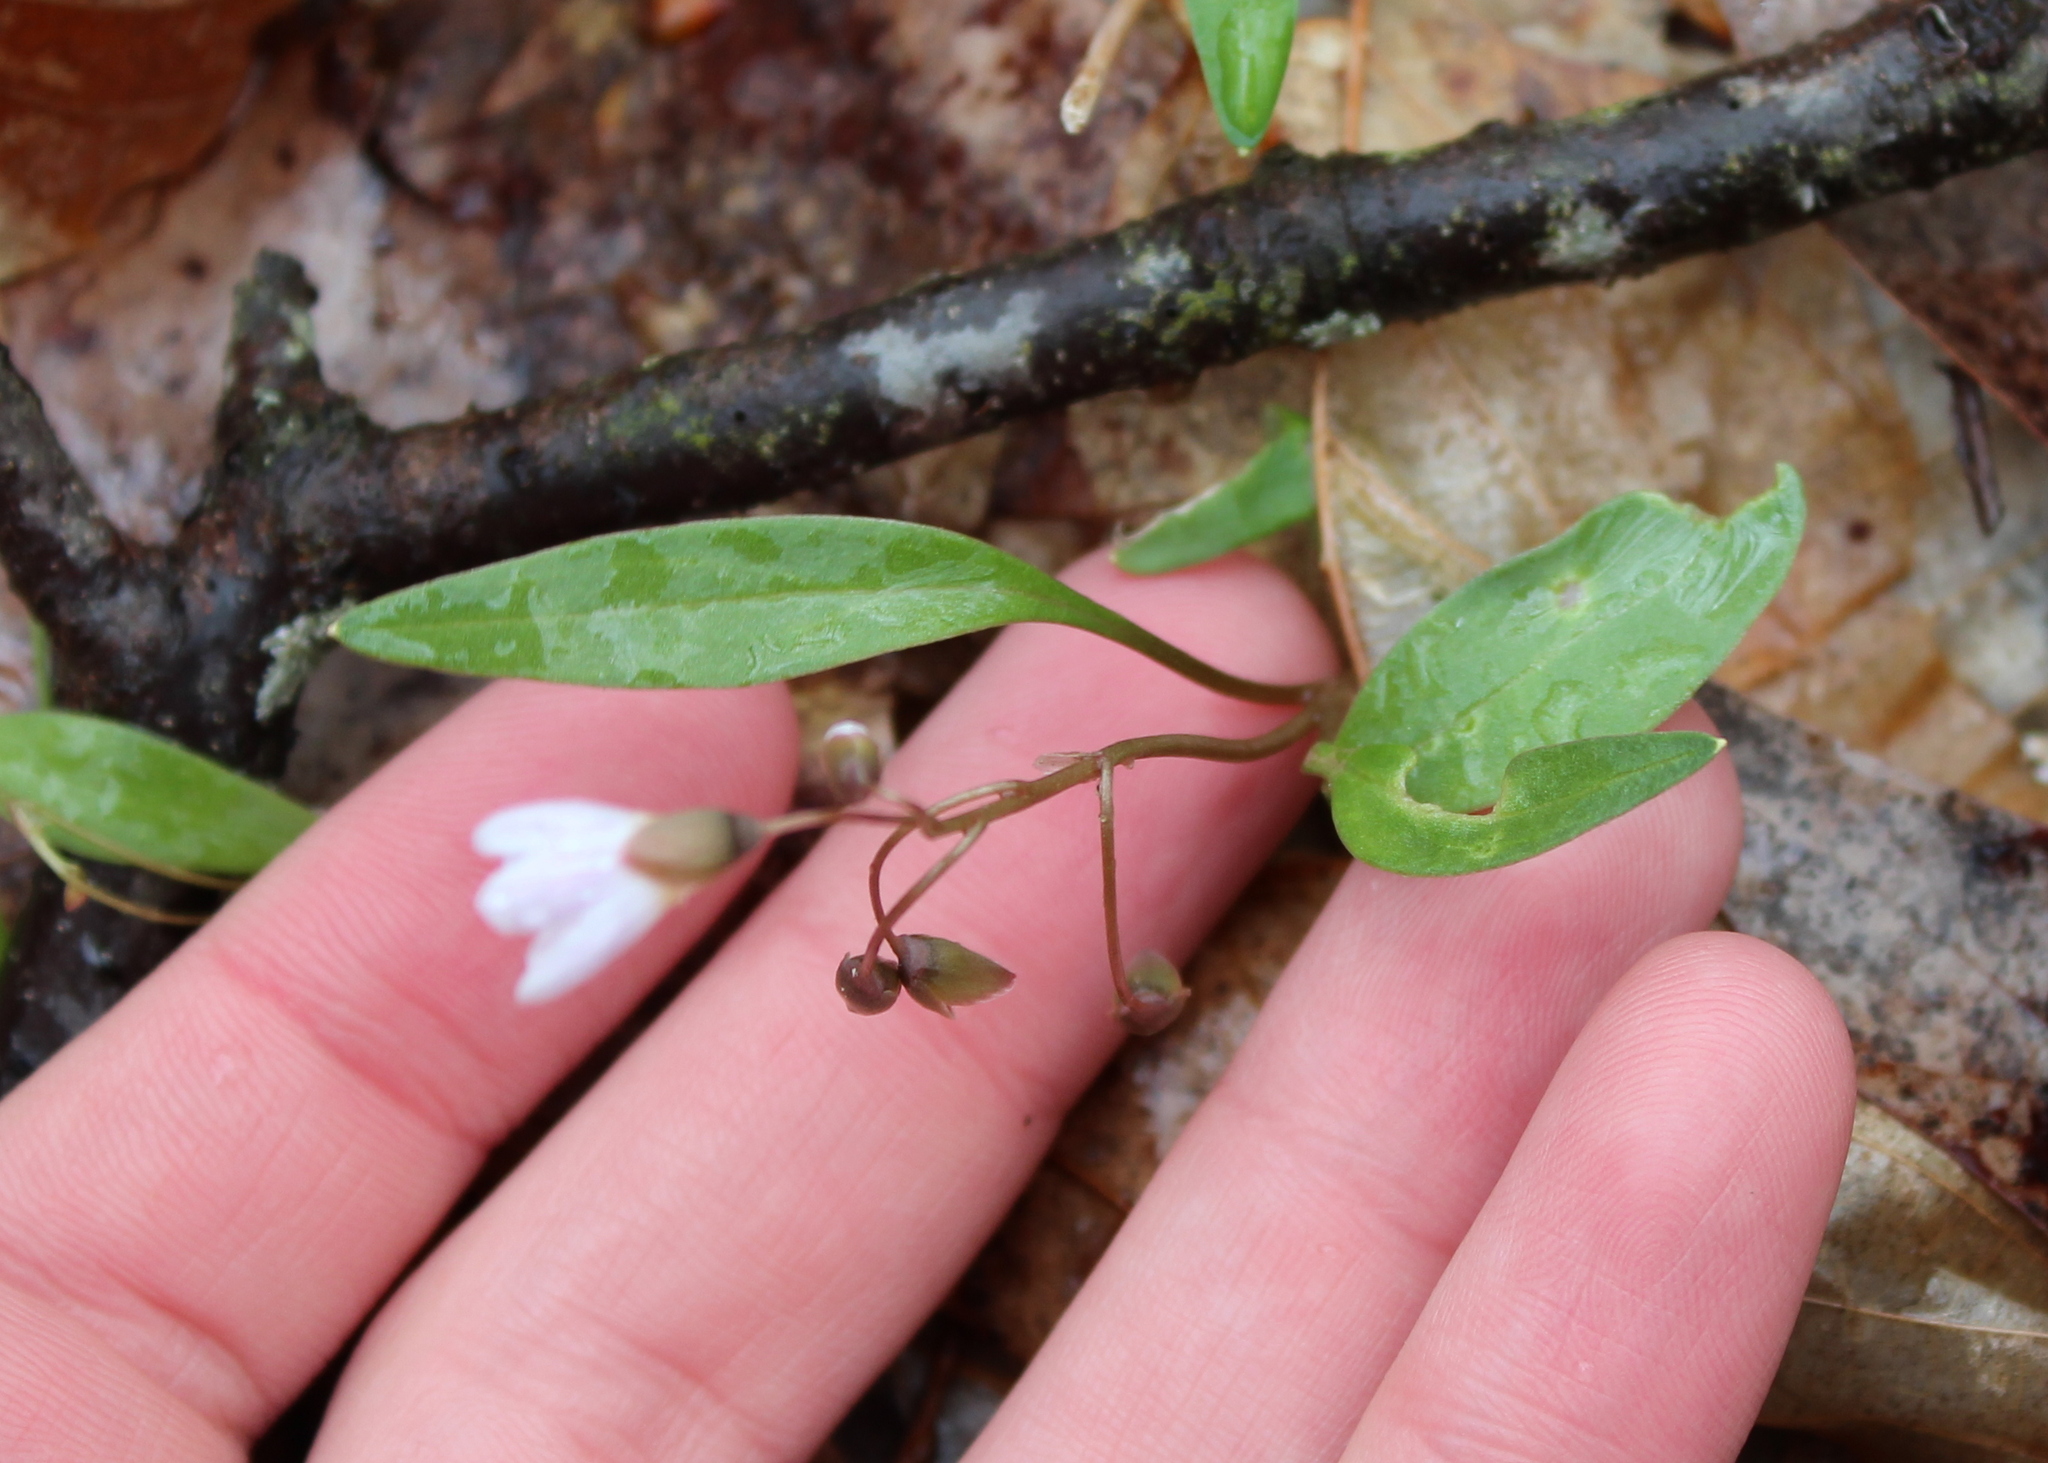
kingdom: Plantae
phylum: Tracheophyta
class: Magnoliopsida
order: Caryophyllales
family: Montiaceae
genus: Claytonia
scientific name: Claytonia caroliniana
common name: Carolina spring beauty
